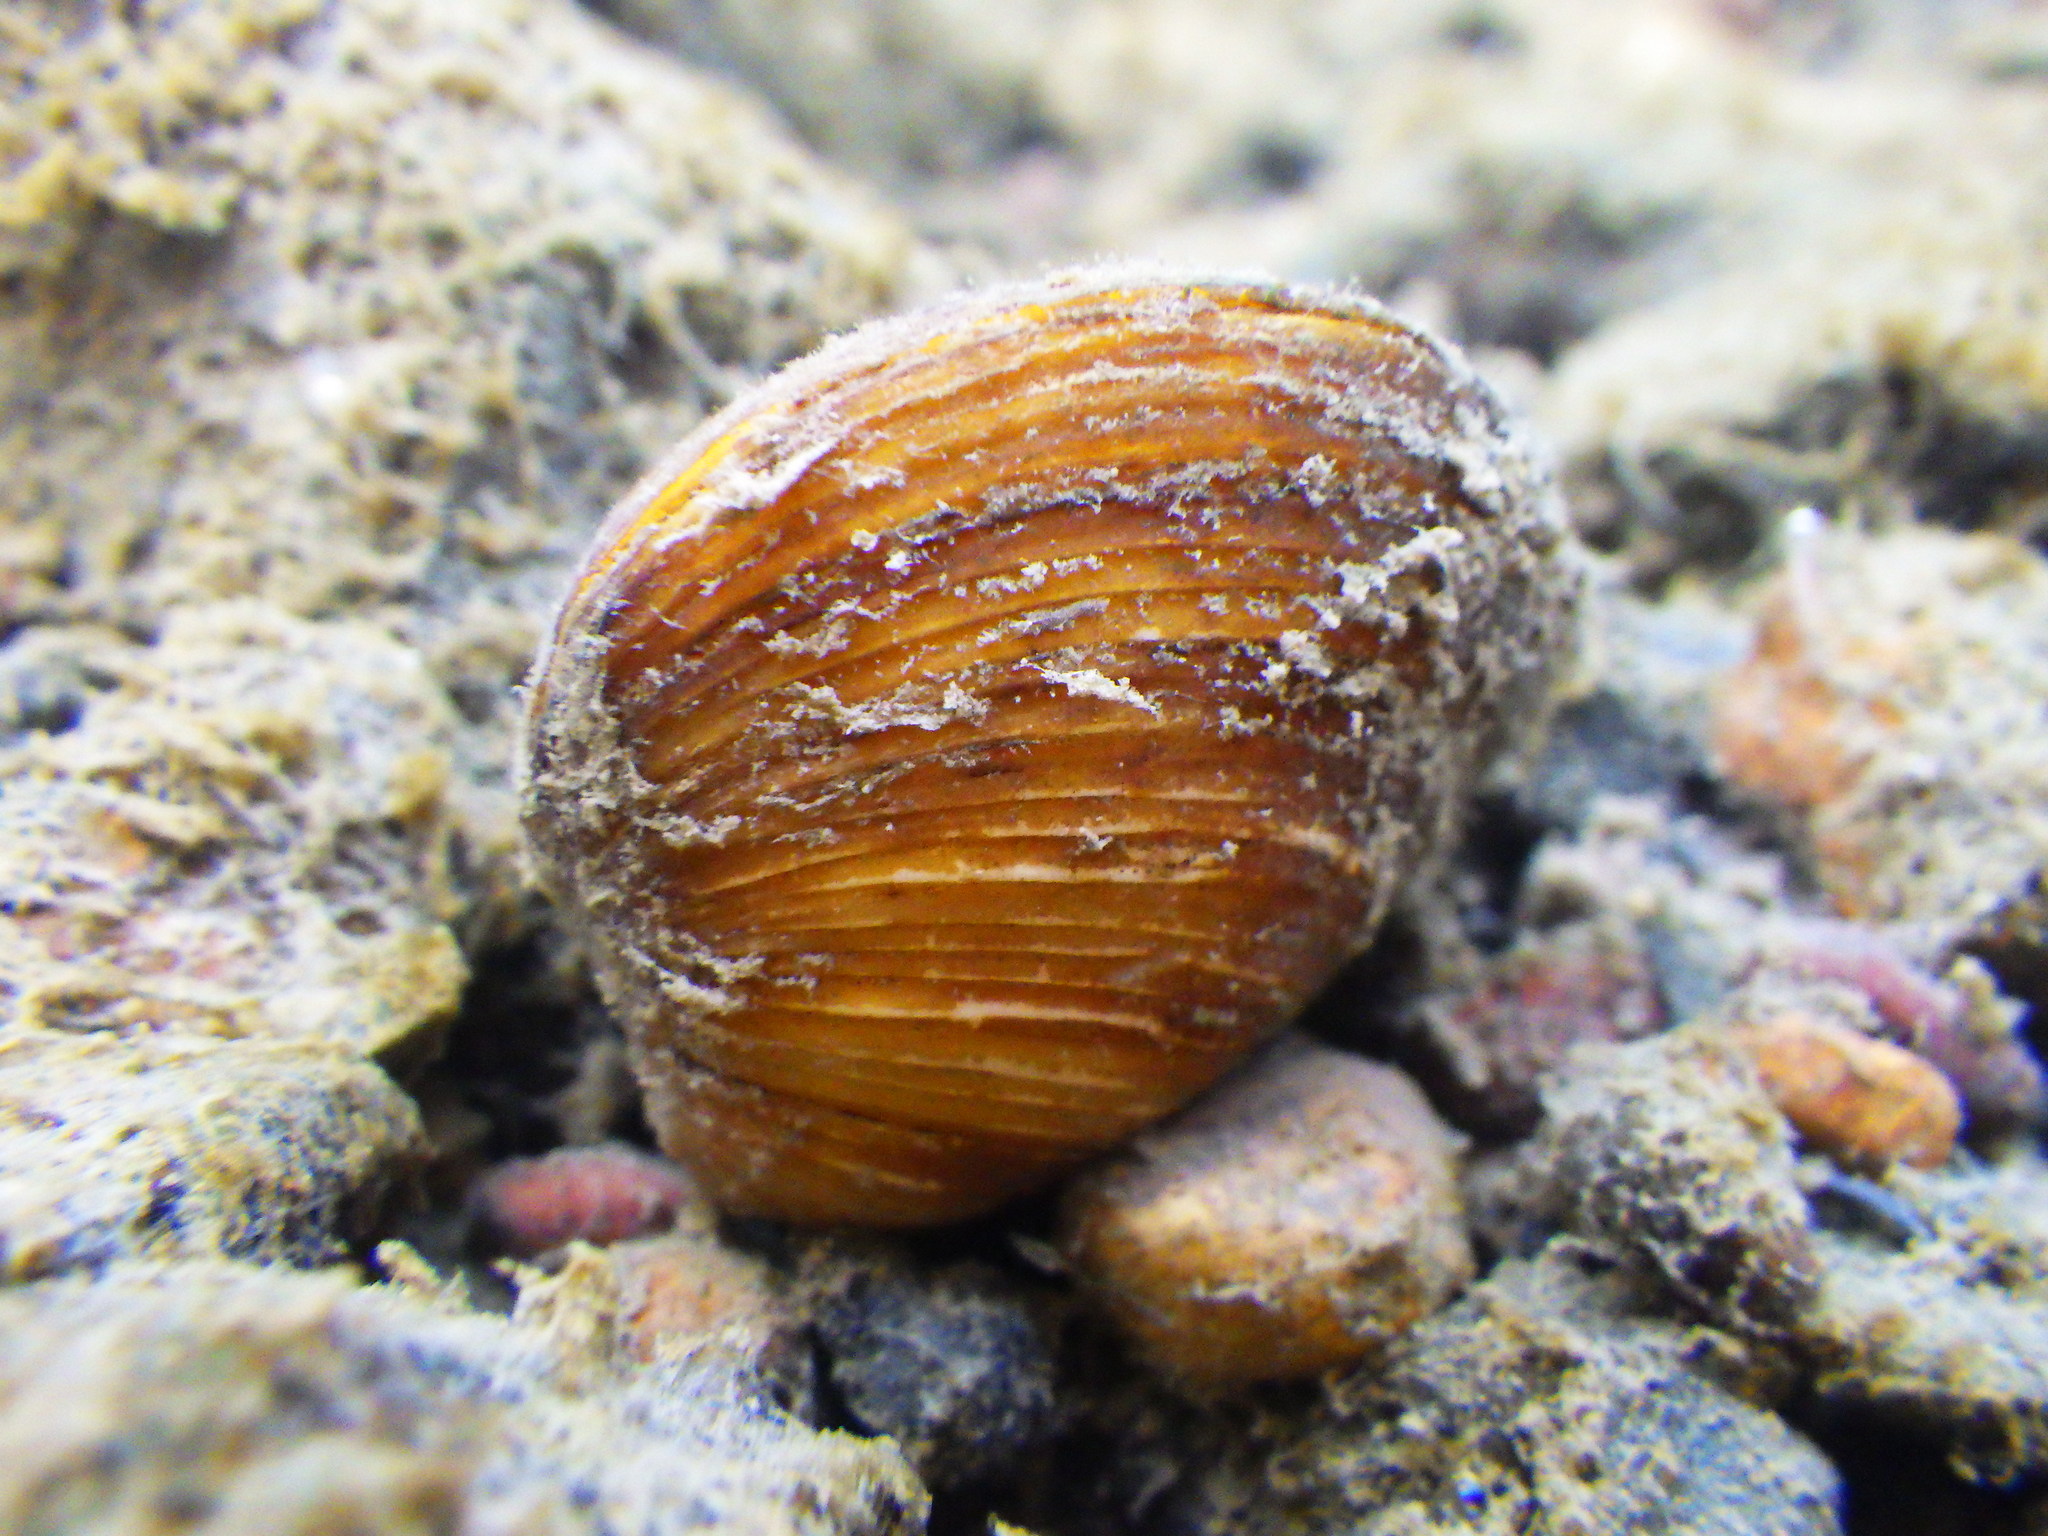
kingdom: Animalia
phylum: Mollusca
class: Bivalvia
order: Venerida
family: Cyrenidae
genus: Corbicula
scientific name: Corbicula fluminea
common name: Asian clam
